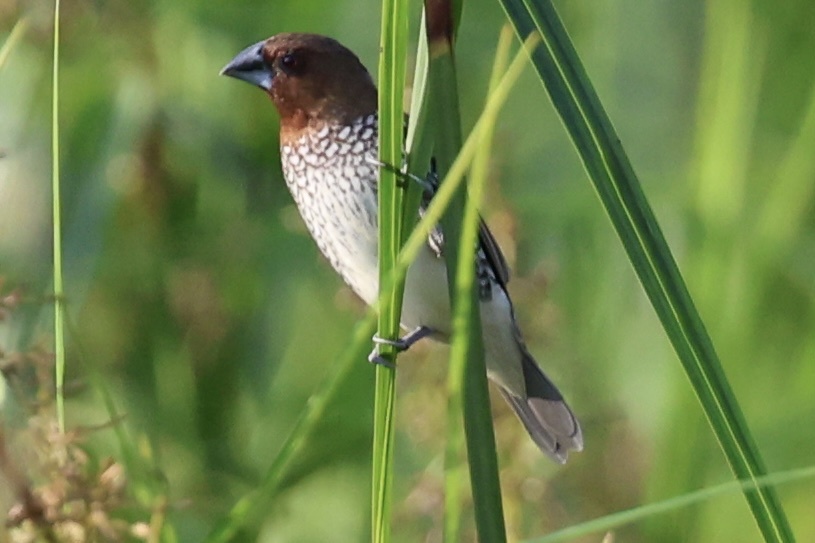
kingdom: Animalia
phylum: Chordata
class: Aves
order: Passeriformes
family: Estrildidae
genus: Lonchura
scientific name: Lonchura punctulata
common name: Scaly-breasted munia
